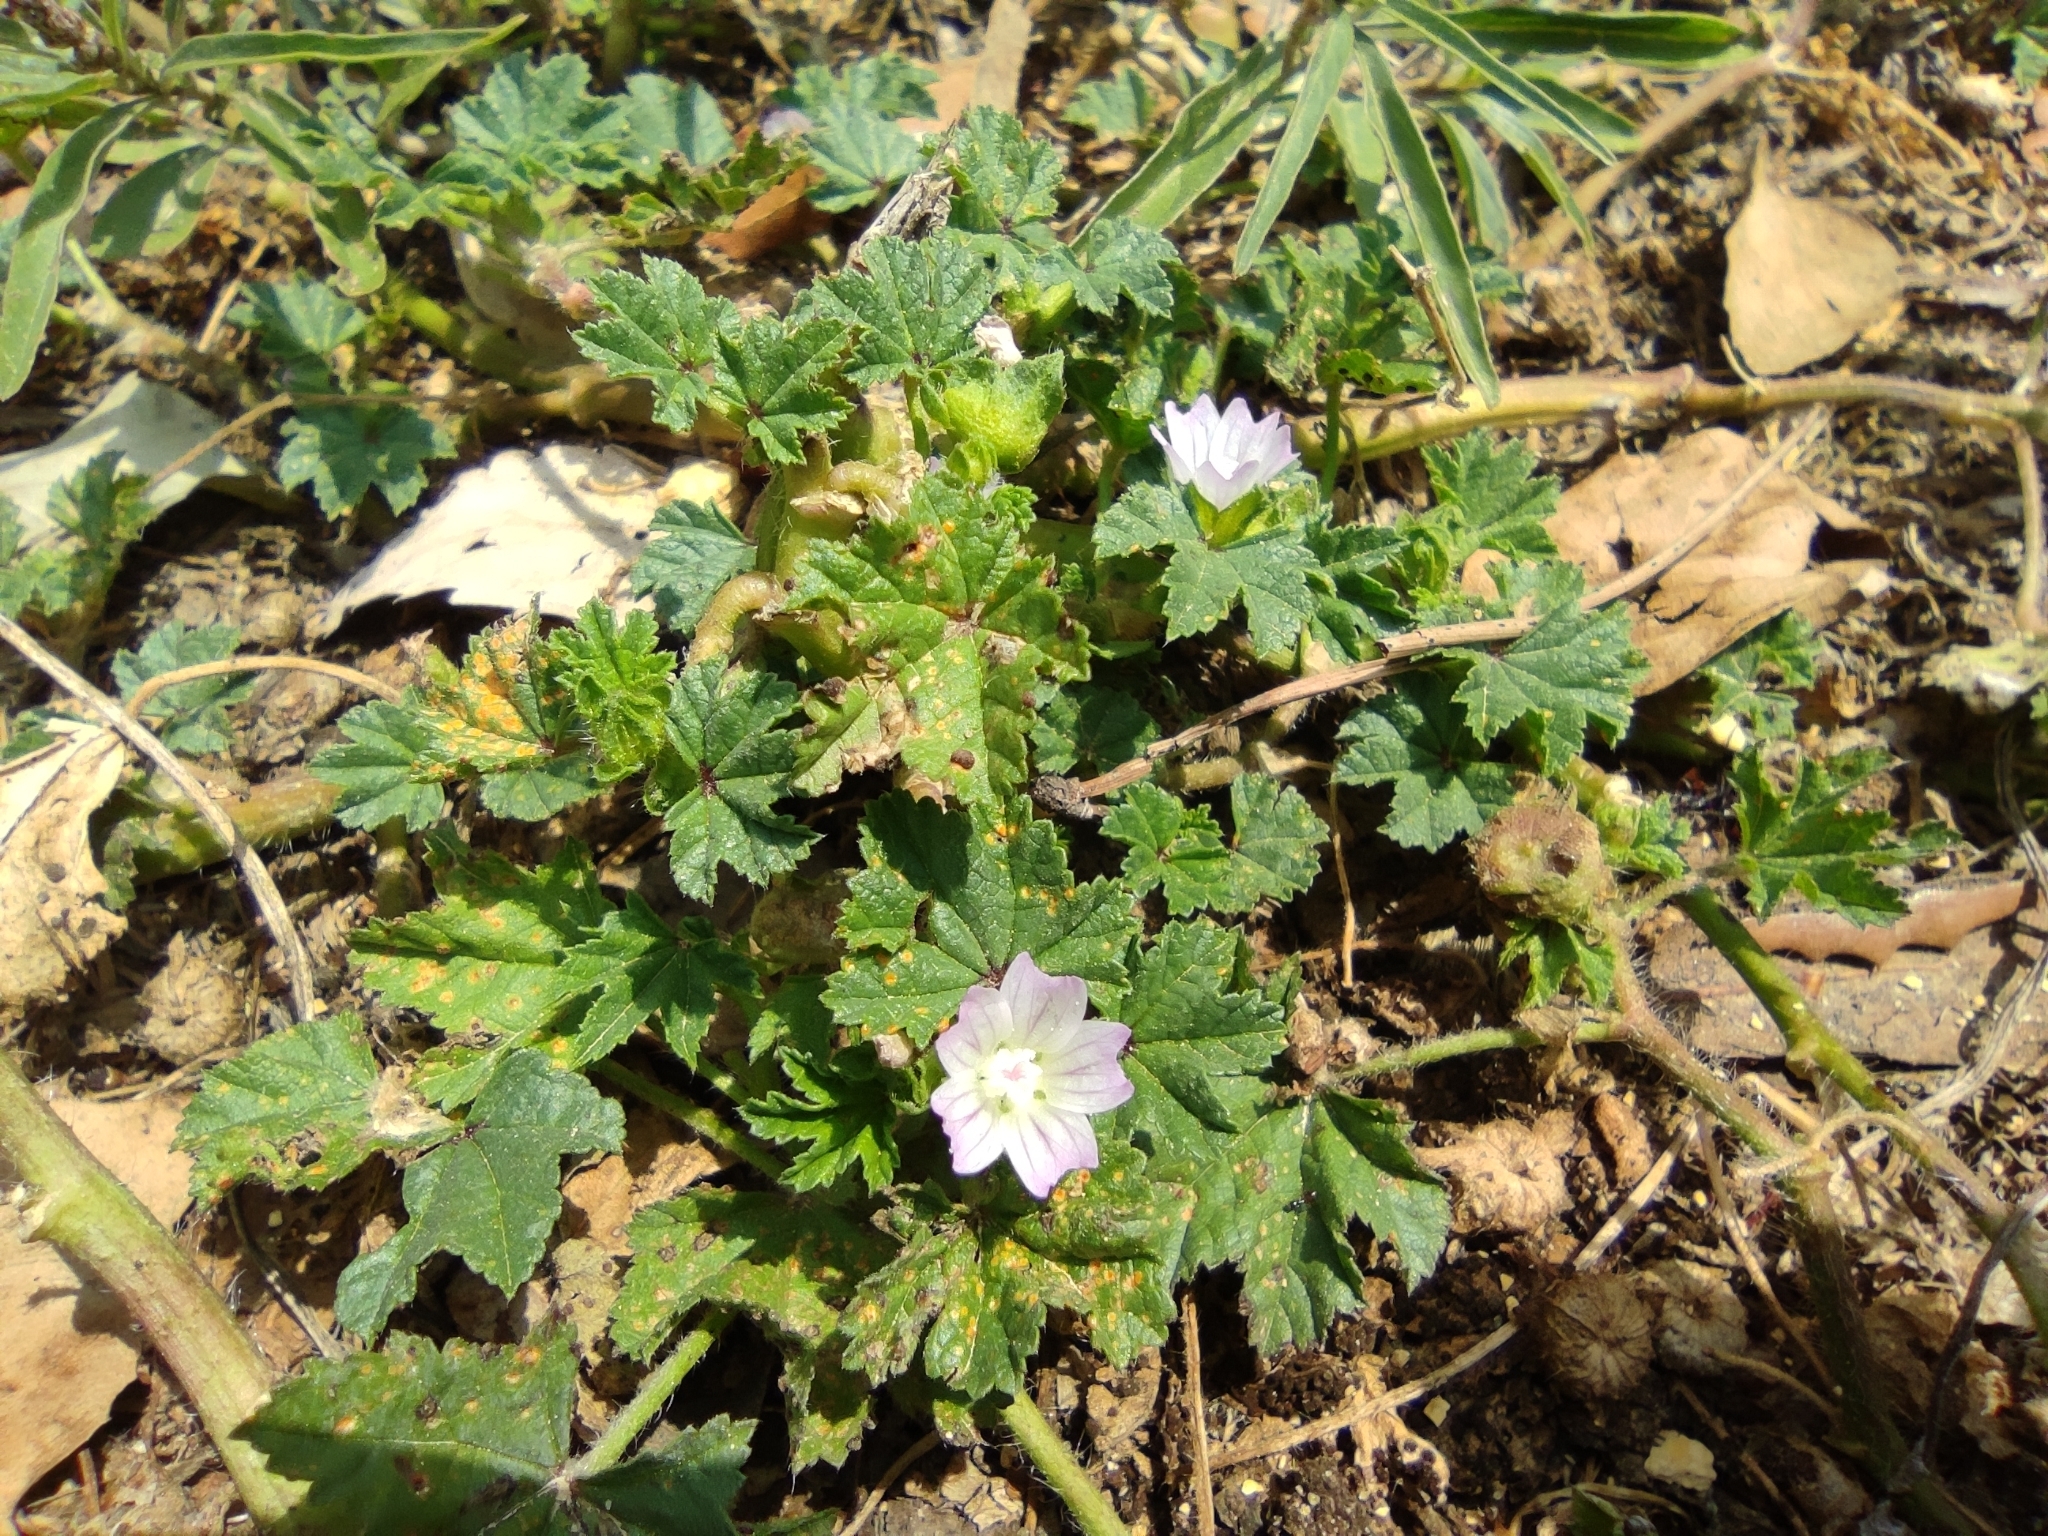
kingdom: Plantae
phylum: Tracheophyta
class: Magnoliopsida
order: Malvales
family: Malvaceae
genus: Malva
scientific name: Malva nicaeensis
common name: French mallow
